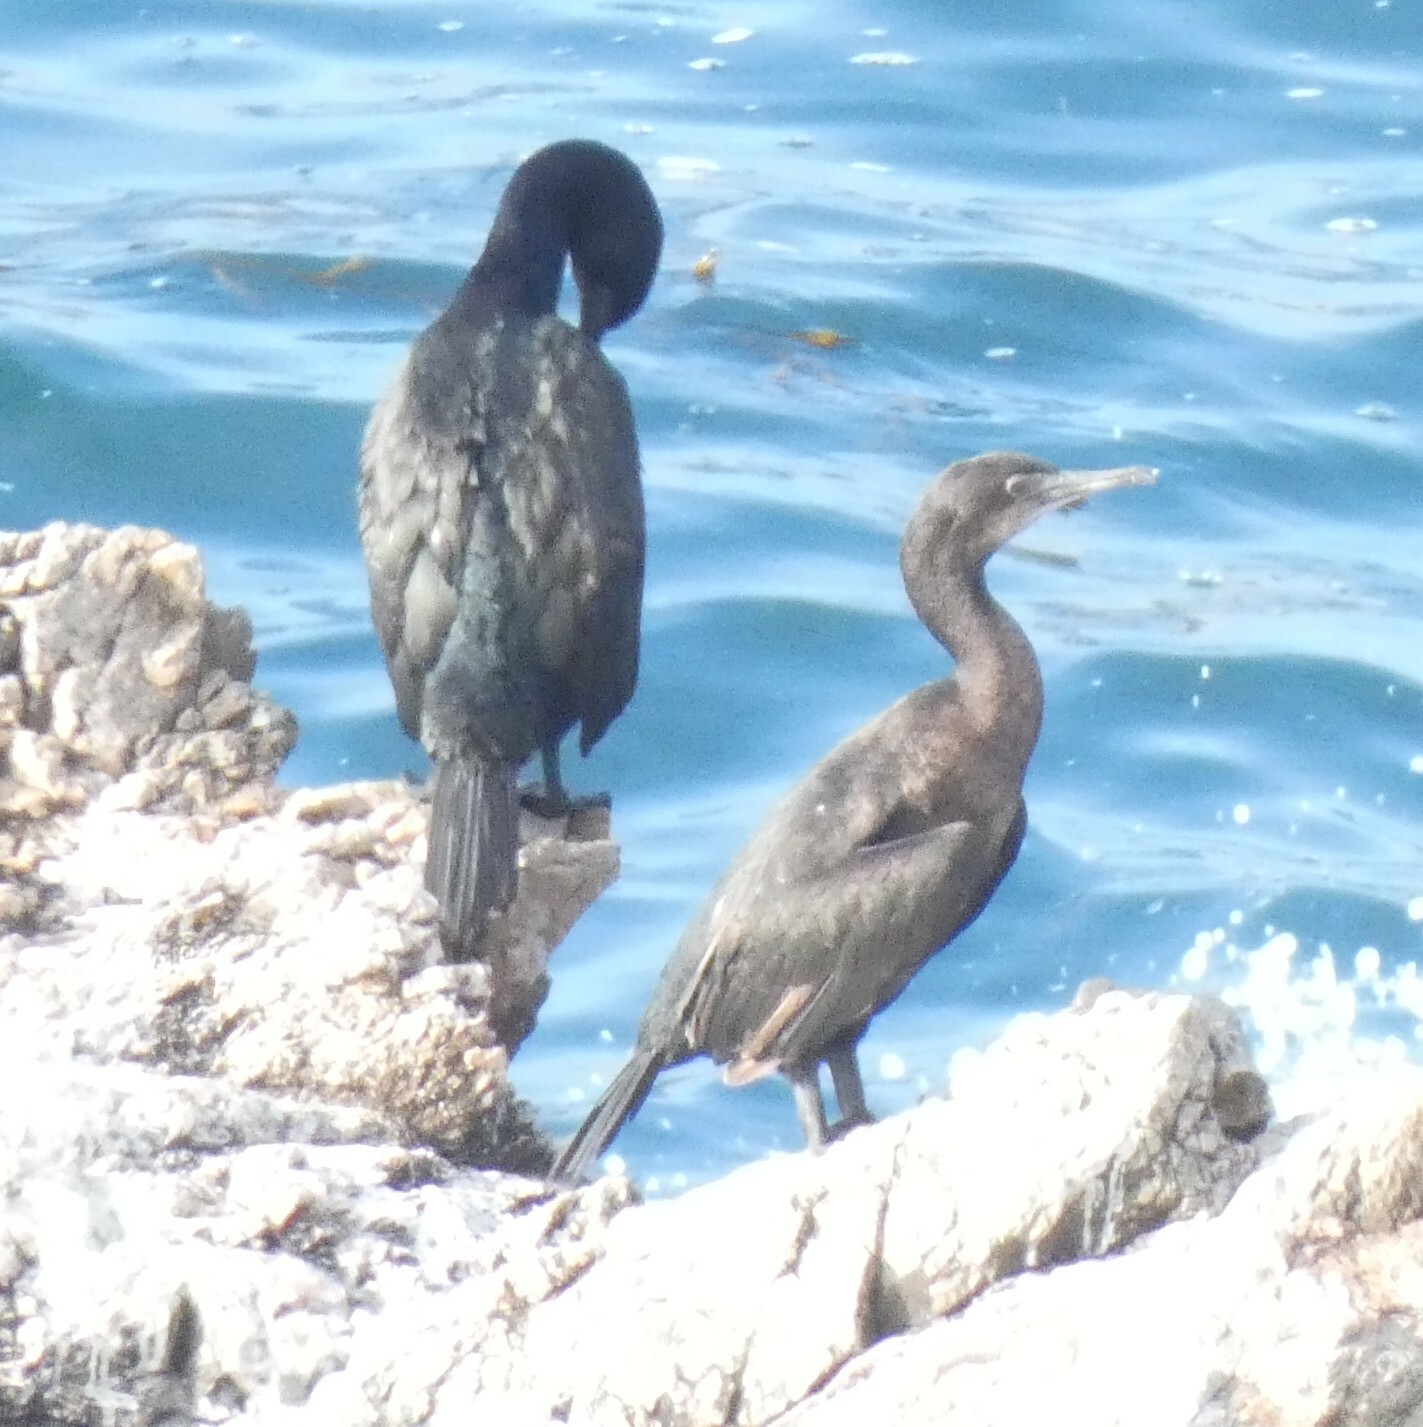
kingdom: Animalia
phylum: Chordata
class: Aves
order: Suliformes
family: Phalacrocoracidae
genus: Urile
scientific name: Urile penicillatus
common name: Brandt's cormorant
